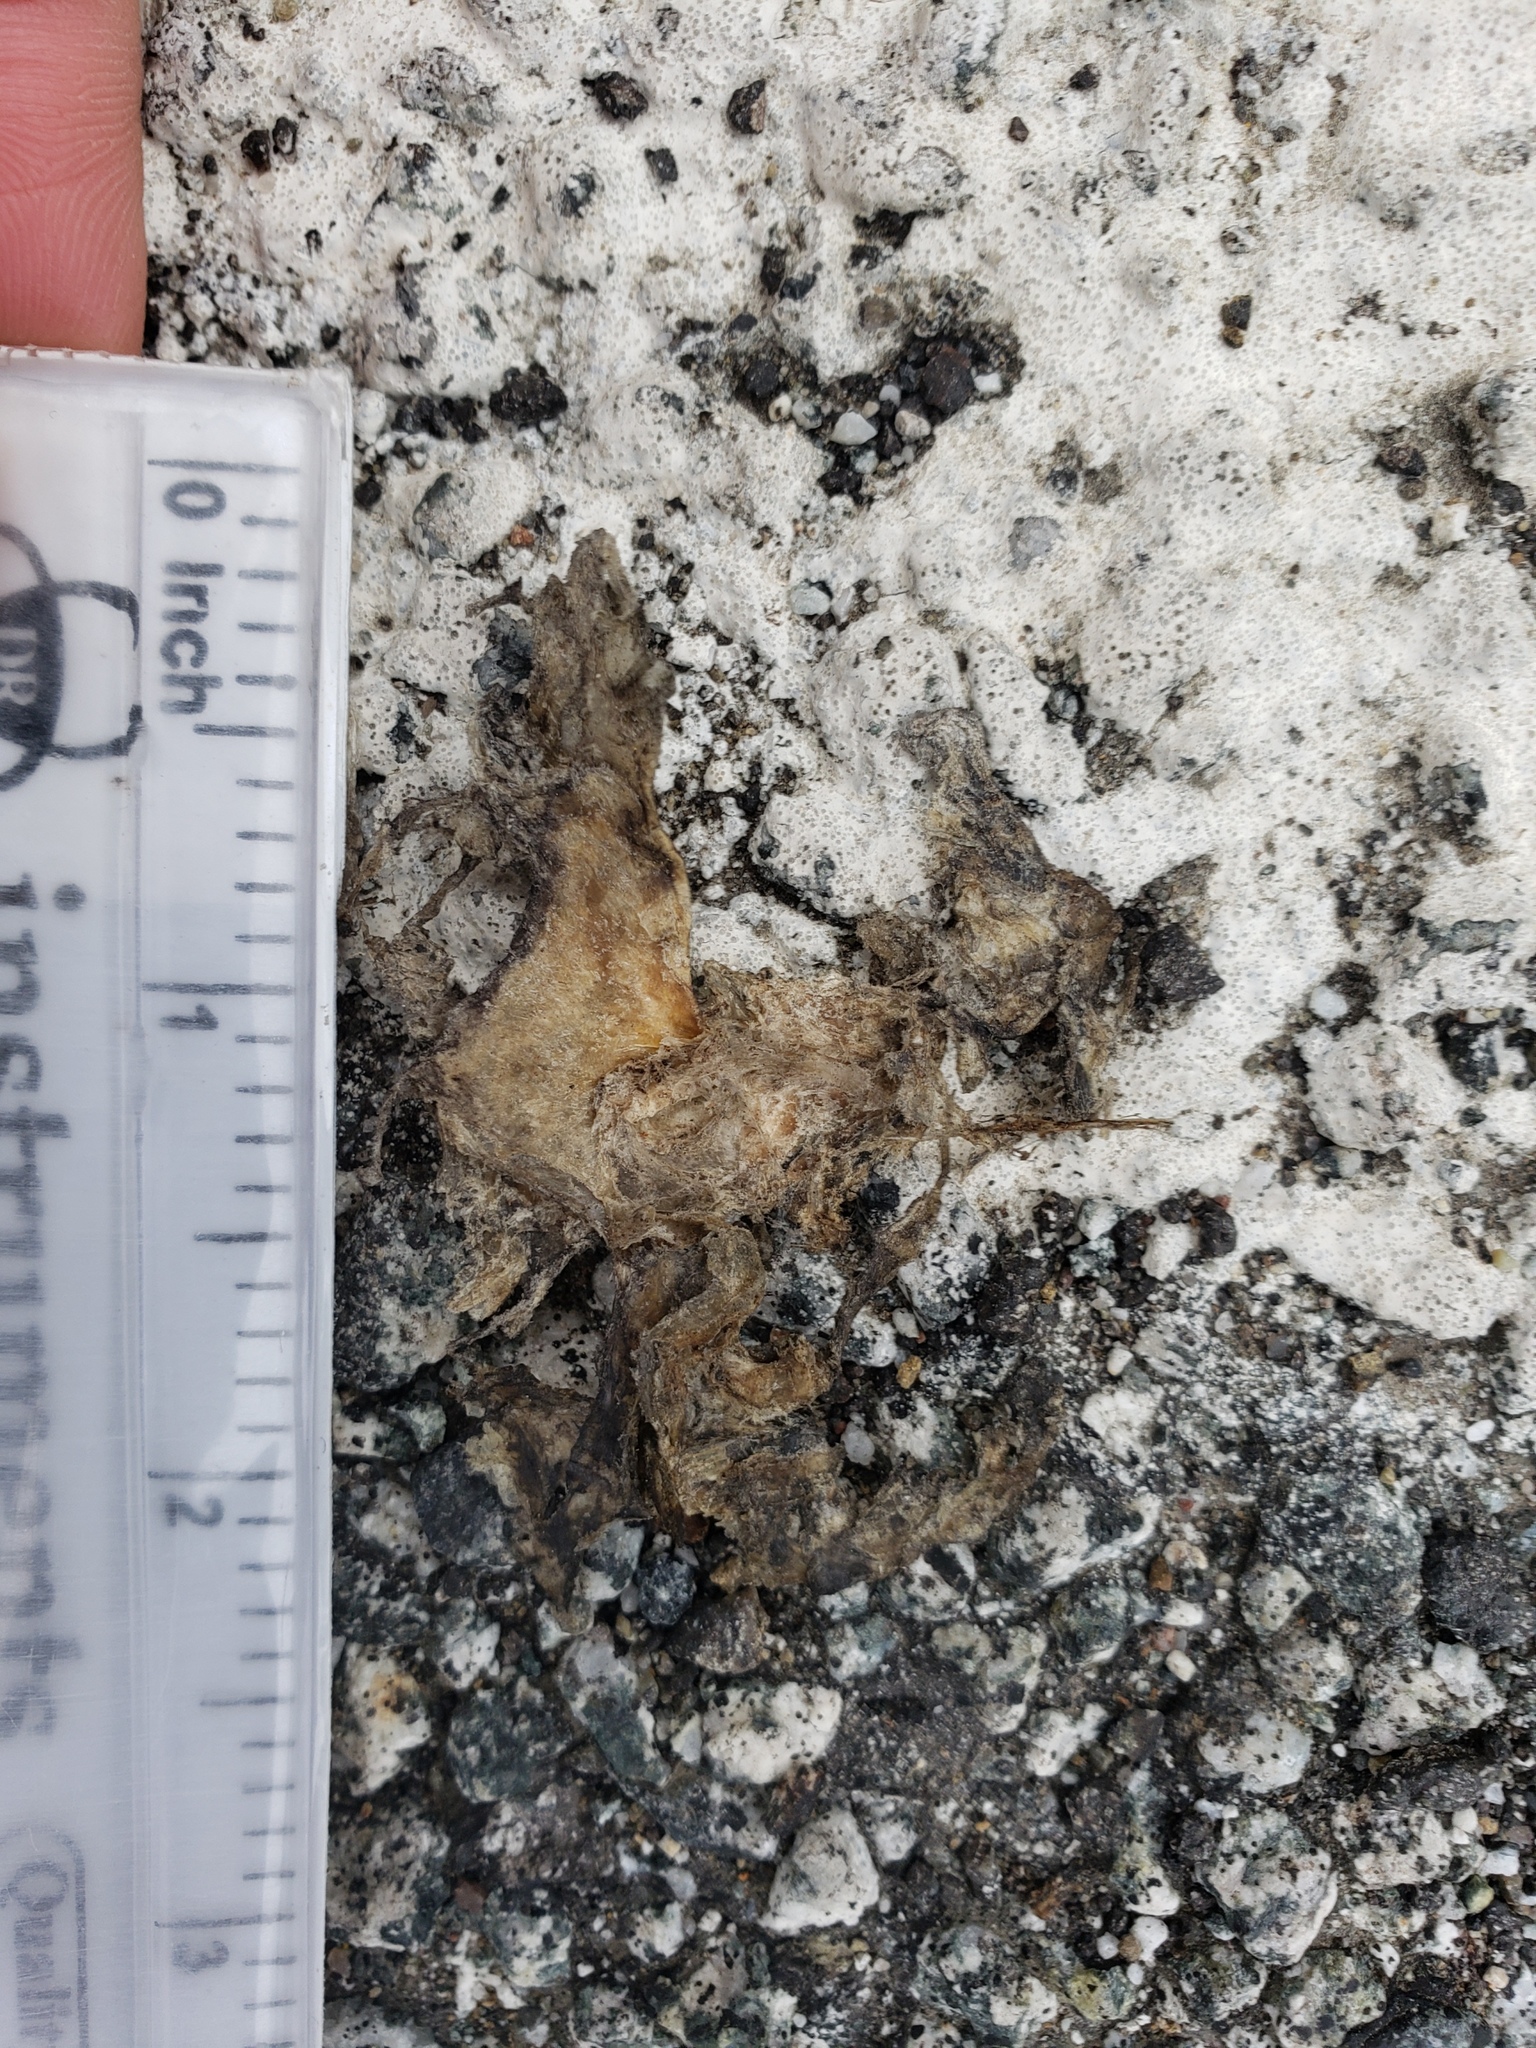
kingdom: Animalia
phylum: Chordata
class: Amphibia
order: Caudata
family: Salamandridae
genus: Taricha
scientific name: Taricha
